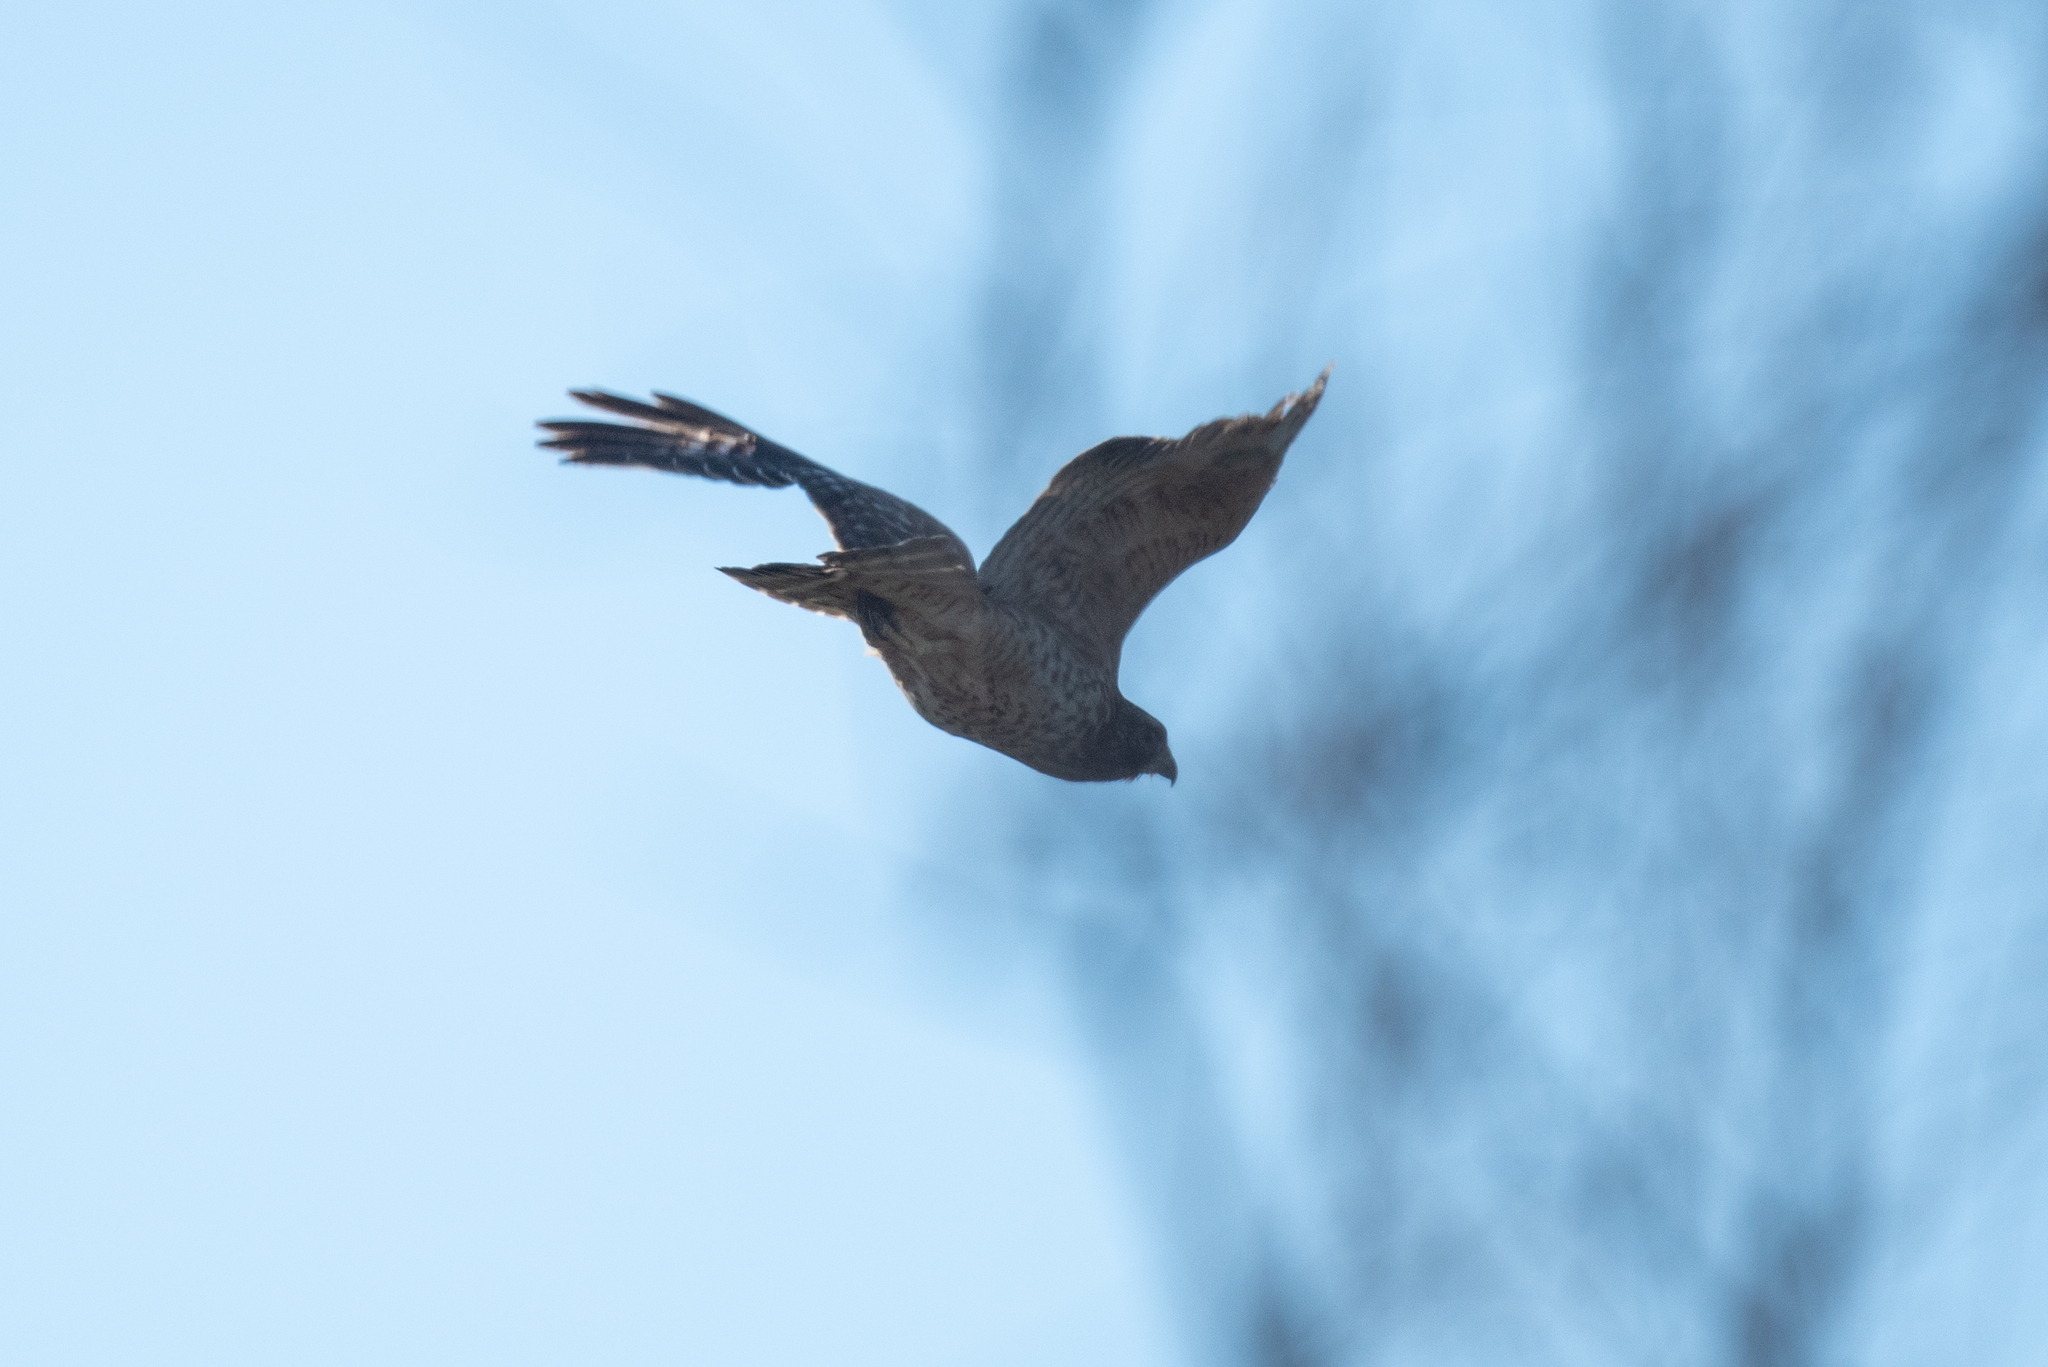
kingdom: Animalia
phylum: Chordata
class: Aves
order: Accipitriformes
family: Accipitridae
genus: Buteo
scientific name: Buteo lineatus
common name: Red-shouldered hawk
